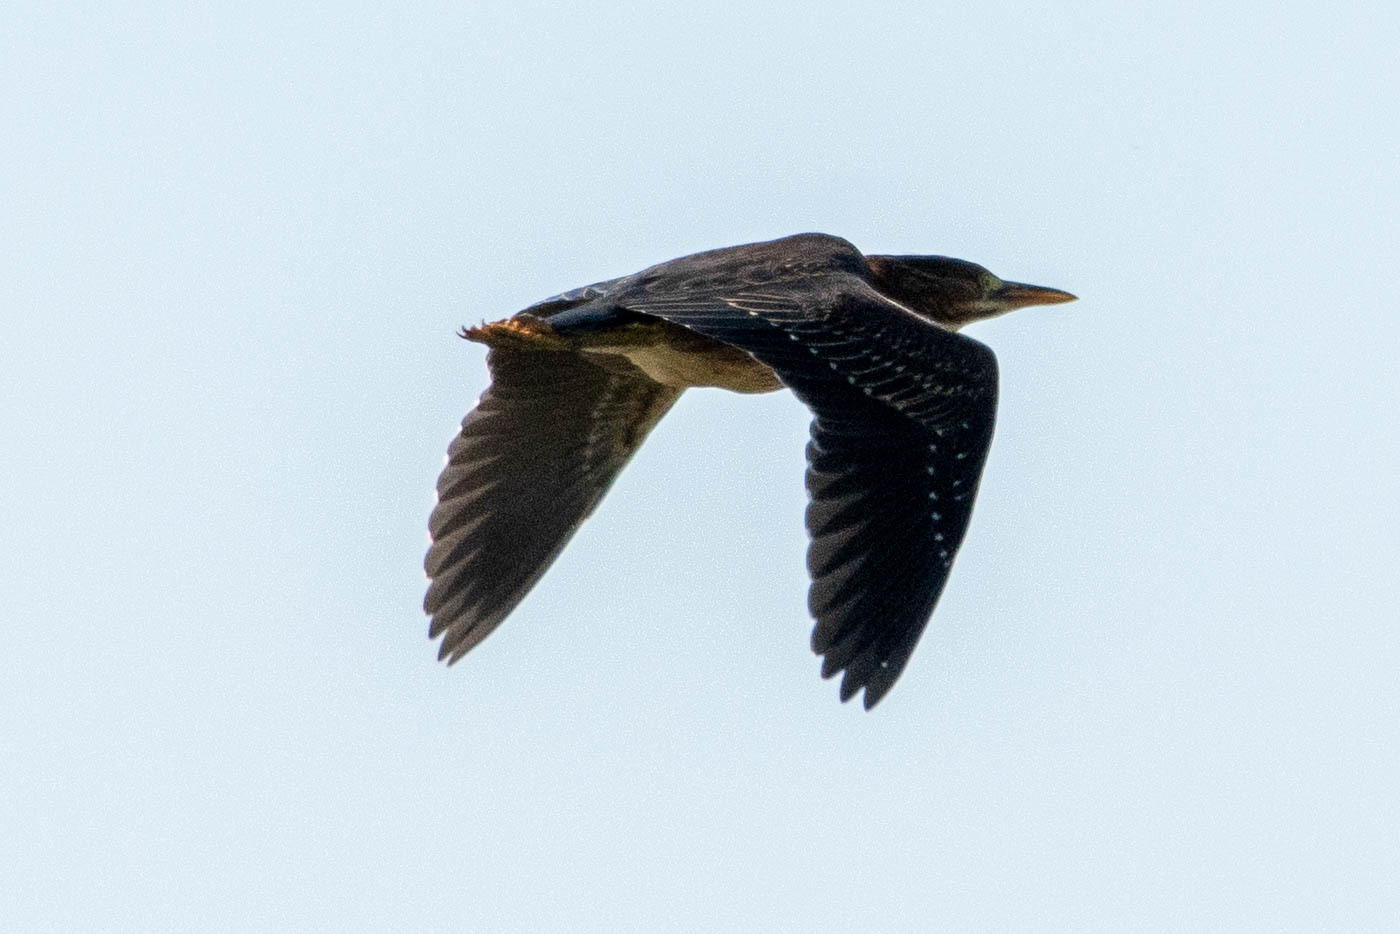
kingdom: Animalia
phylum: Chordata
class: Aves
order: Pelecaniformes
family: Ardeidae
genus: Butorides
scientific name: Butorides virescens
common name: Green heron
